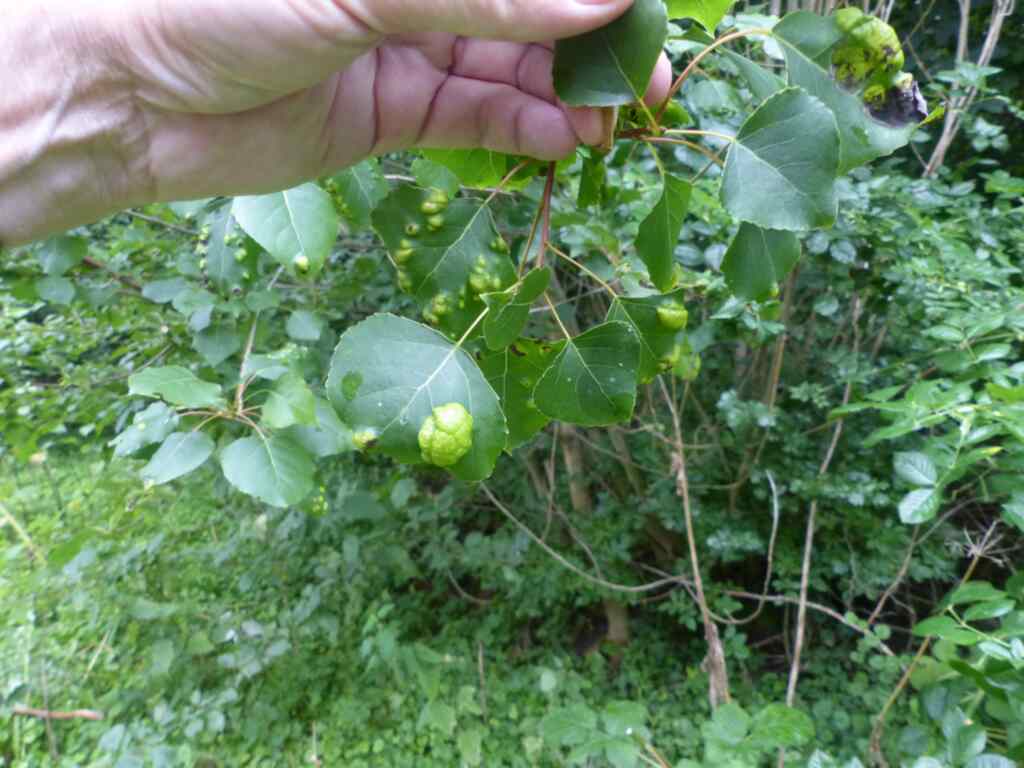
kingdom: Fungi
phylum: Ascomycota
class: Taphrinomycetes
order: Taphrinales
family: Taphrinaceae
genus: Taphrina
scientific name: Taphrina populina
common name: Poplar leaf curl
